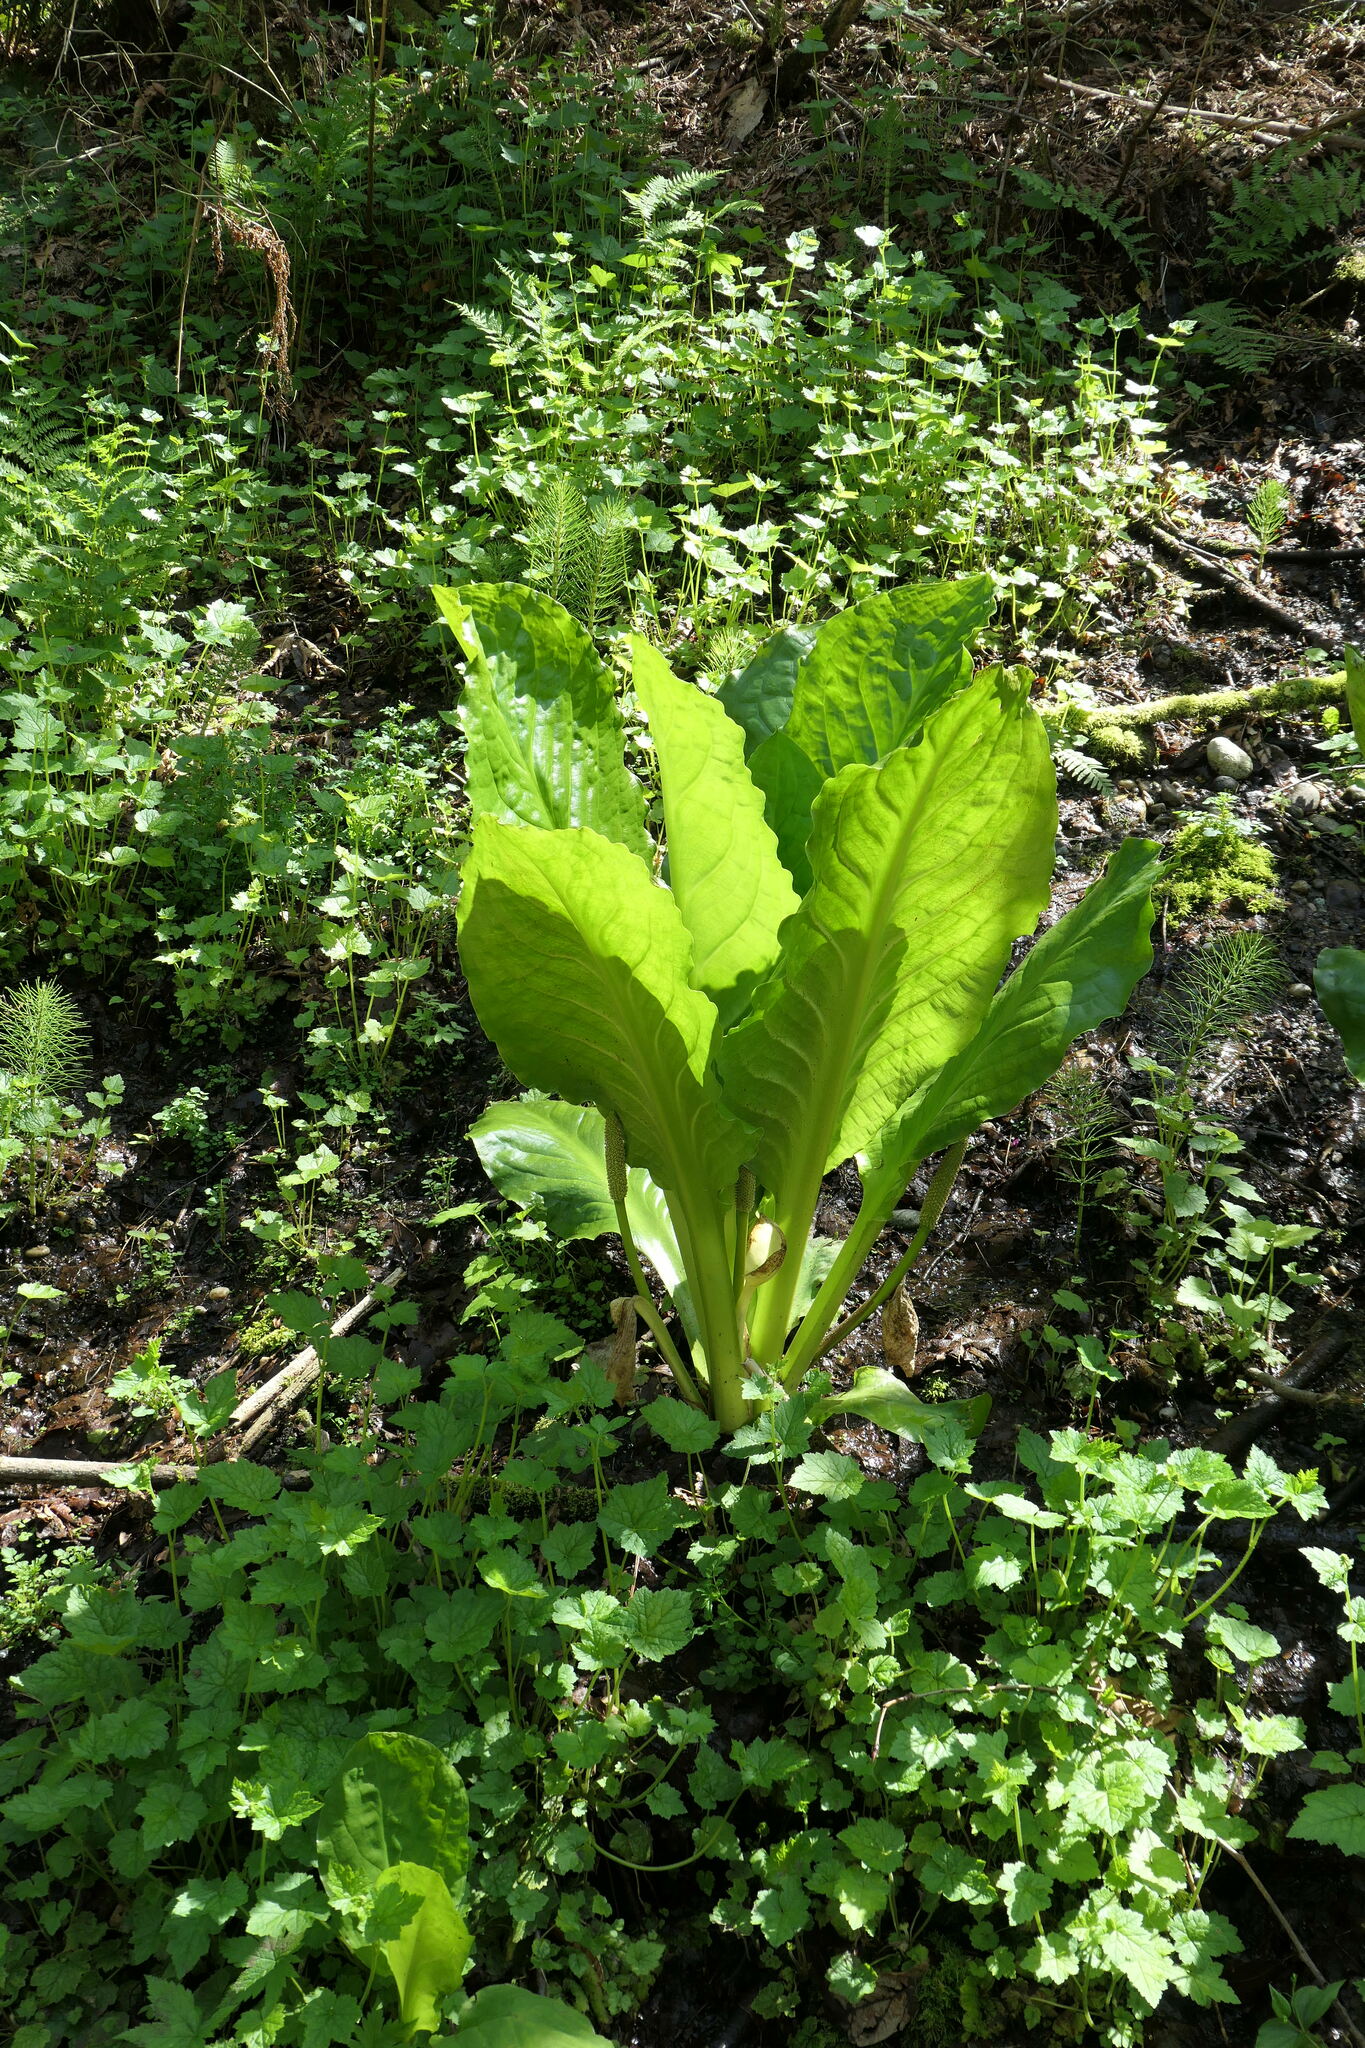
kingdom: Plantae
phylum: Tracheophyta
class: Liliopsida
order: Alismatales
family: Araceae
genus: Lysichiton
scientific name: Lysichiton americanus
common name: American skunk cabbage
